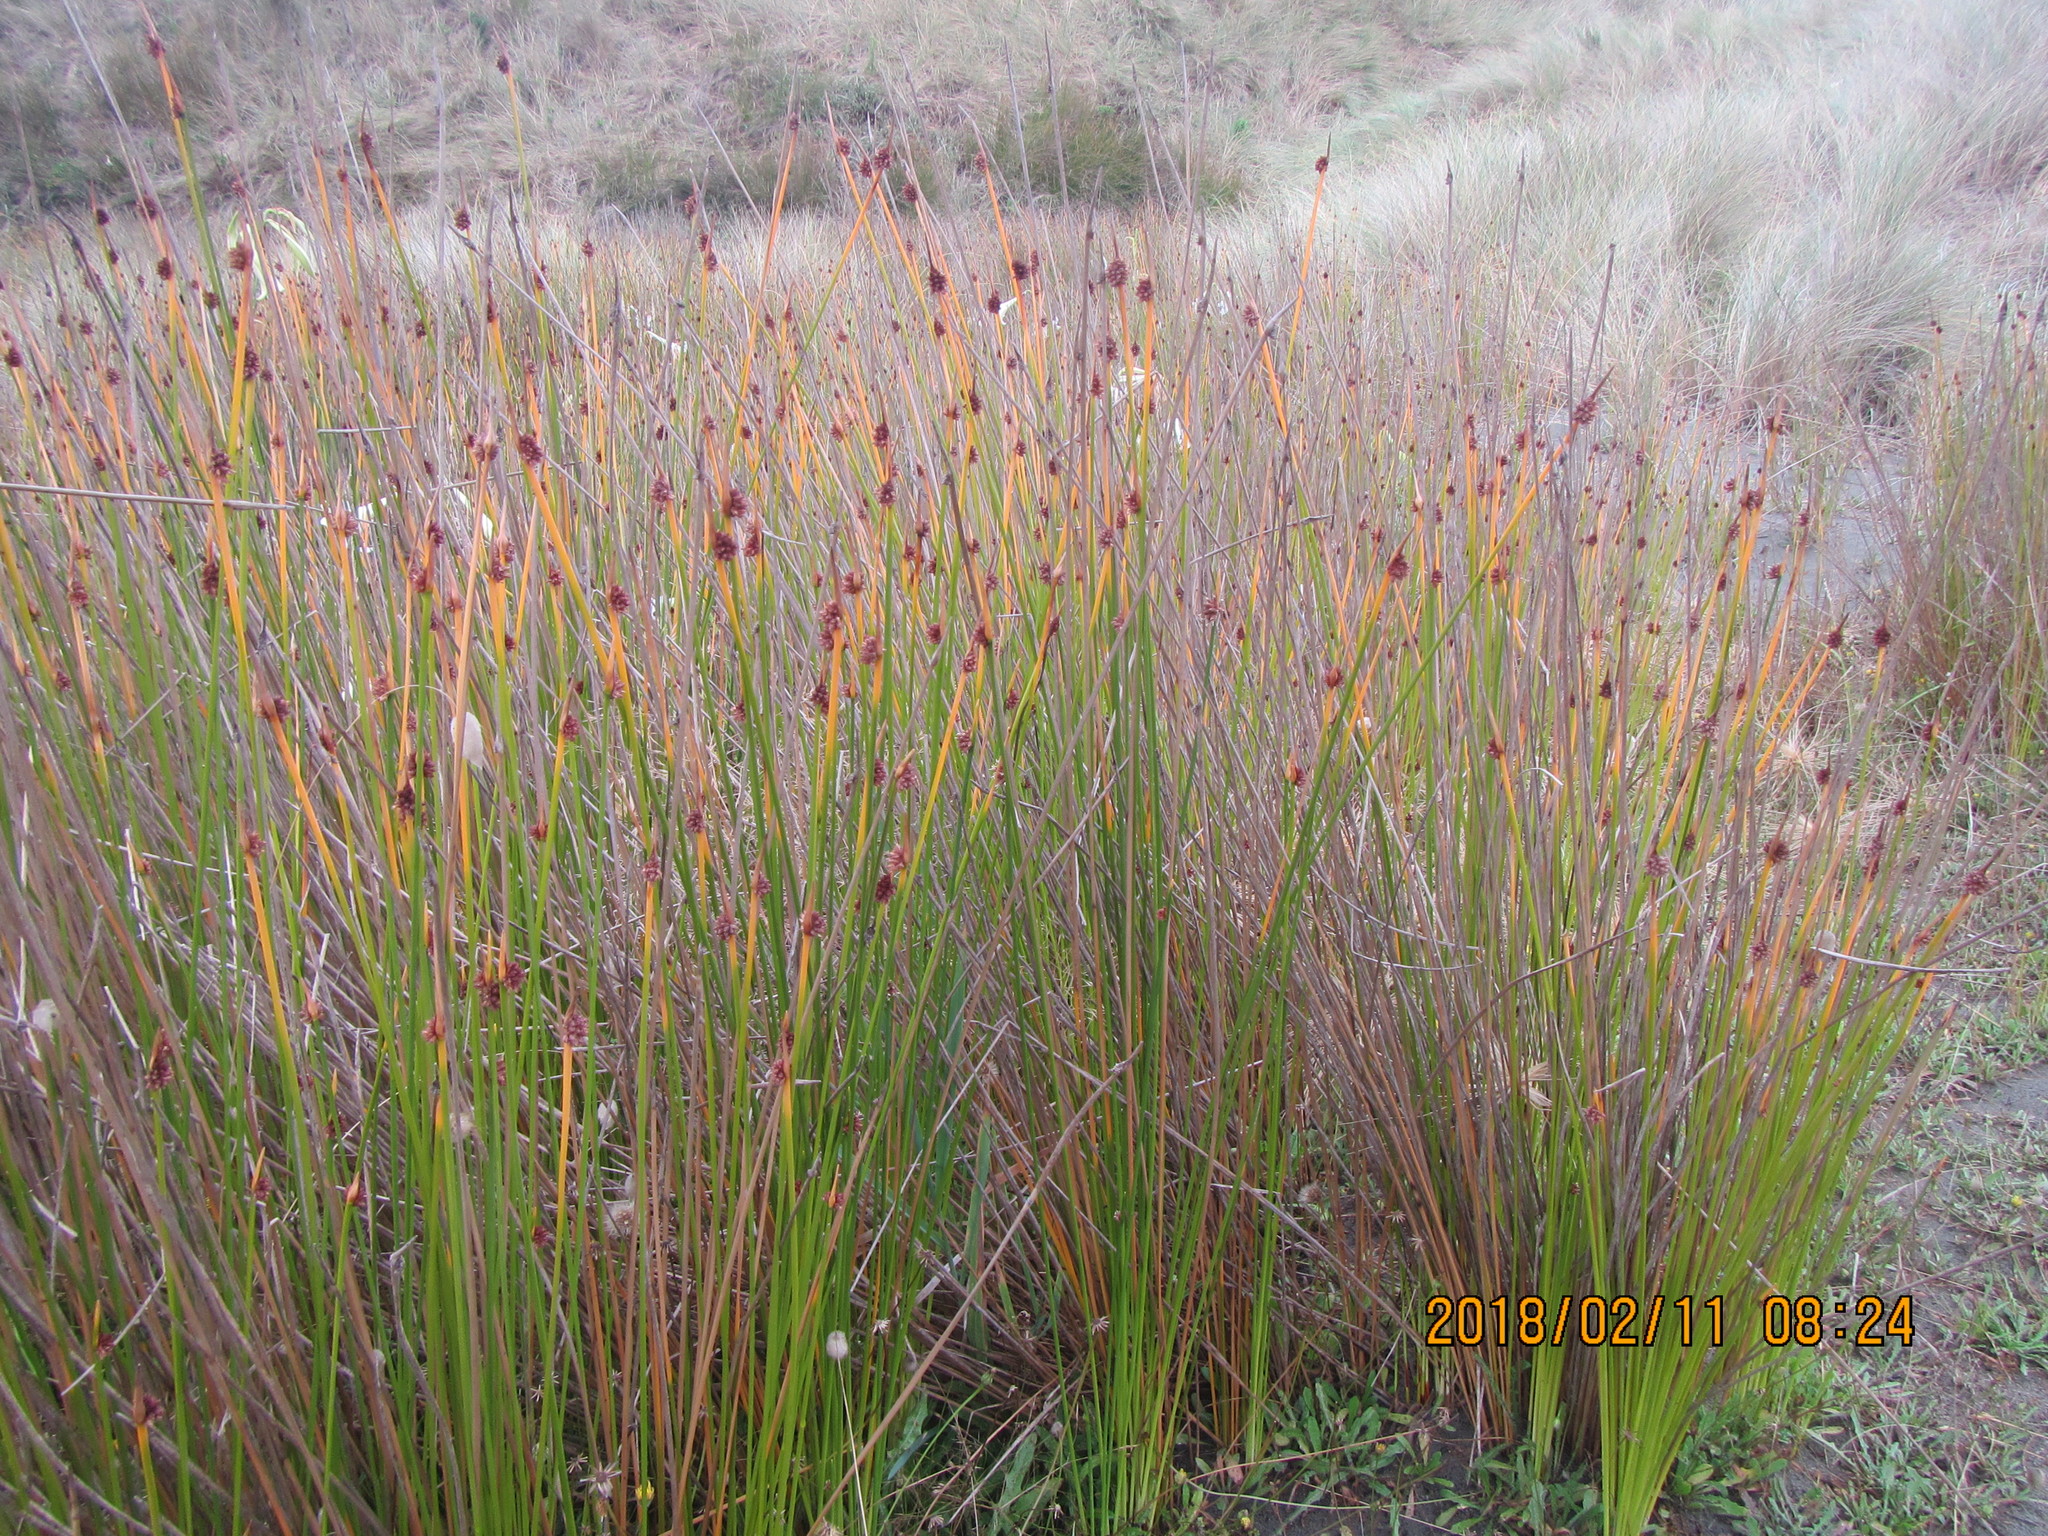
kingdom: Plantae
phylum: Tracheophyta
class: Liliopsida
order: Poales
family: Cyperaceae
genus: Ficinia
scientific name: Ficinia nodosa
